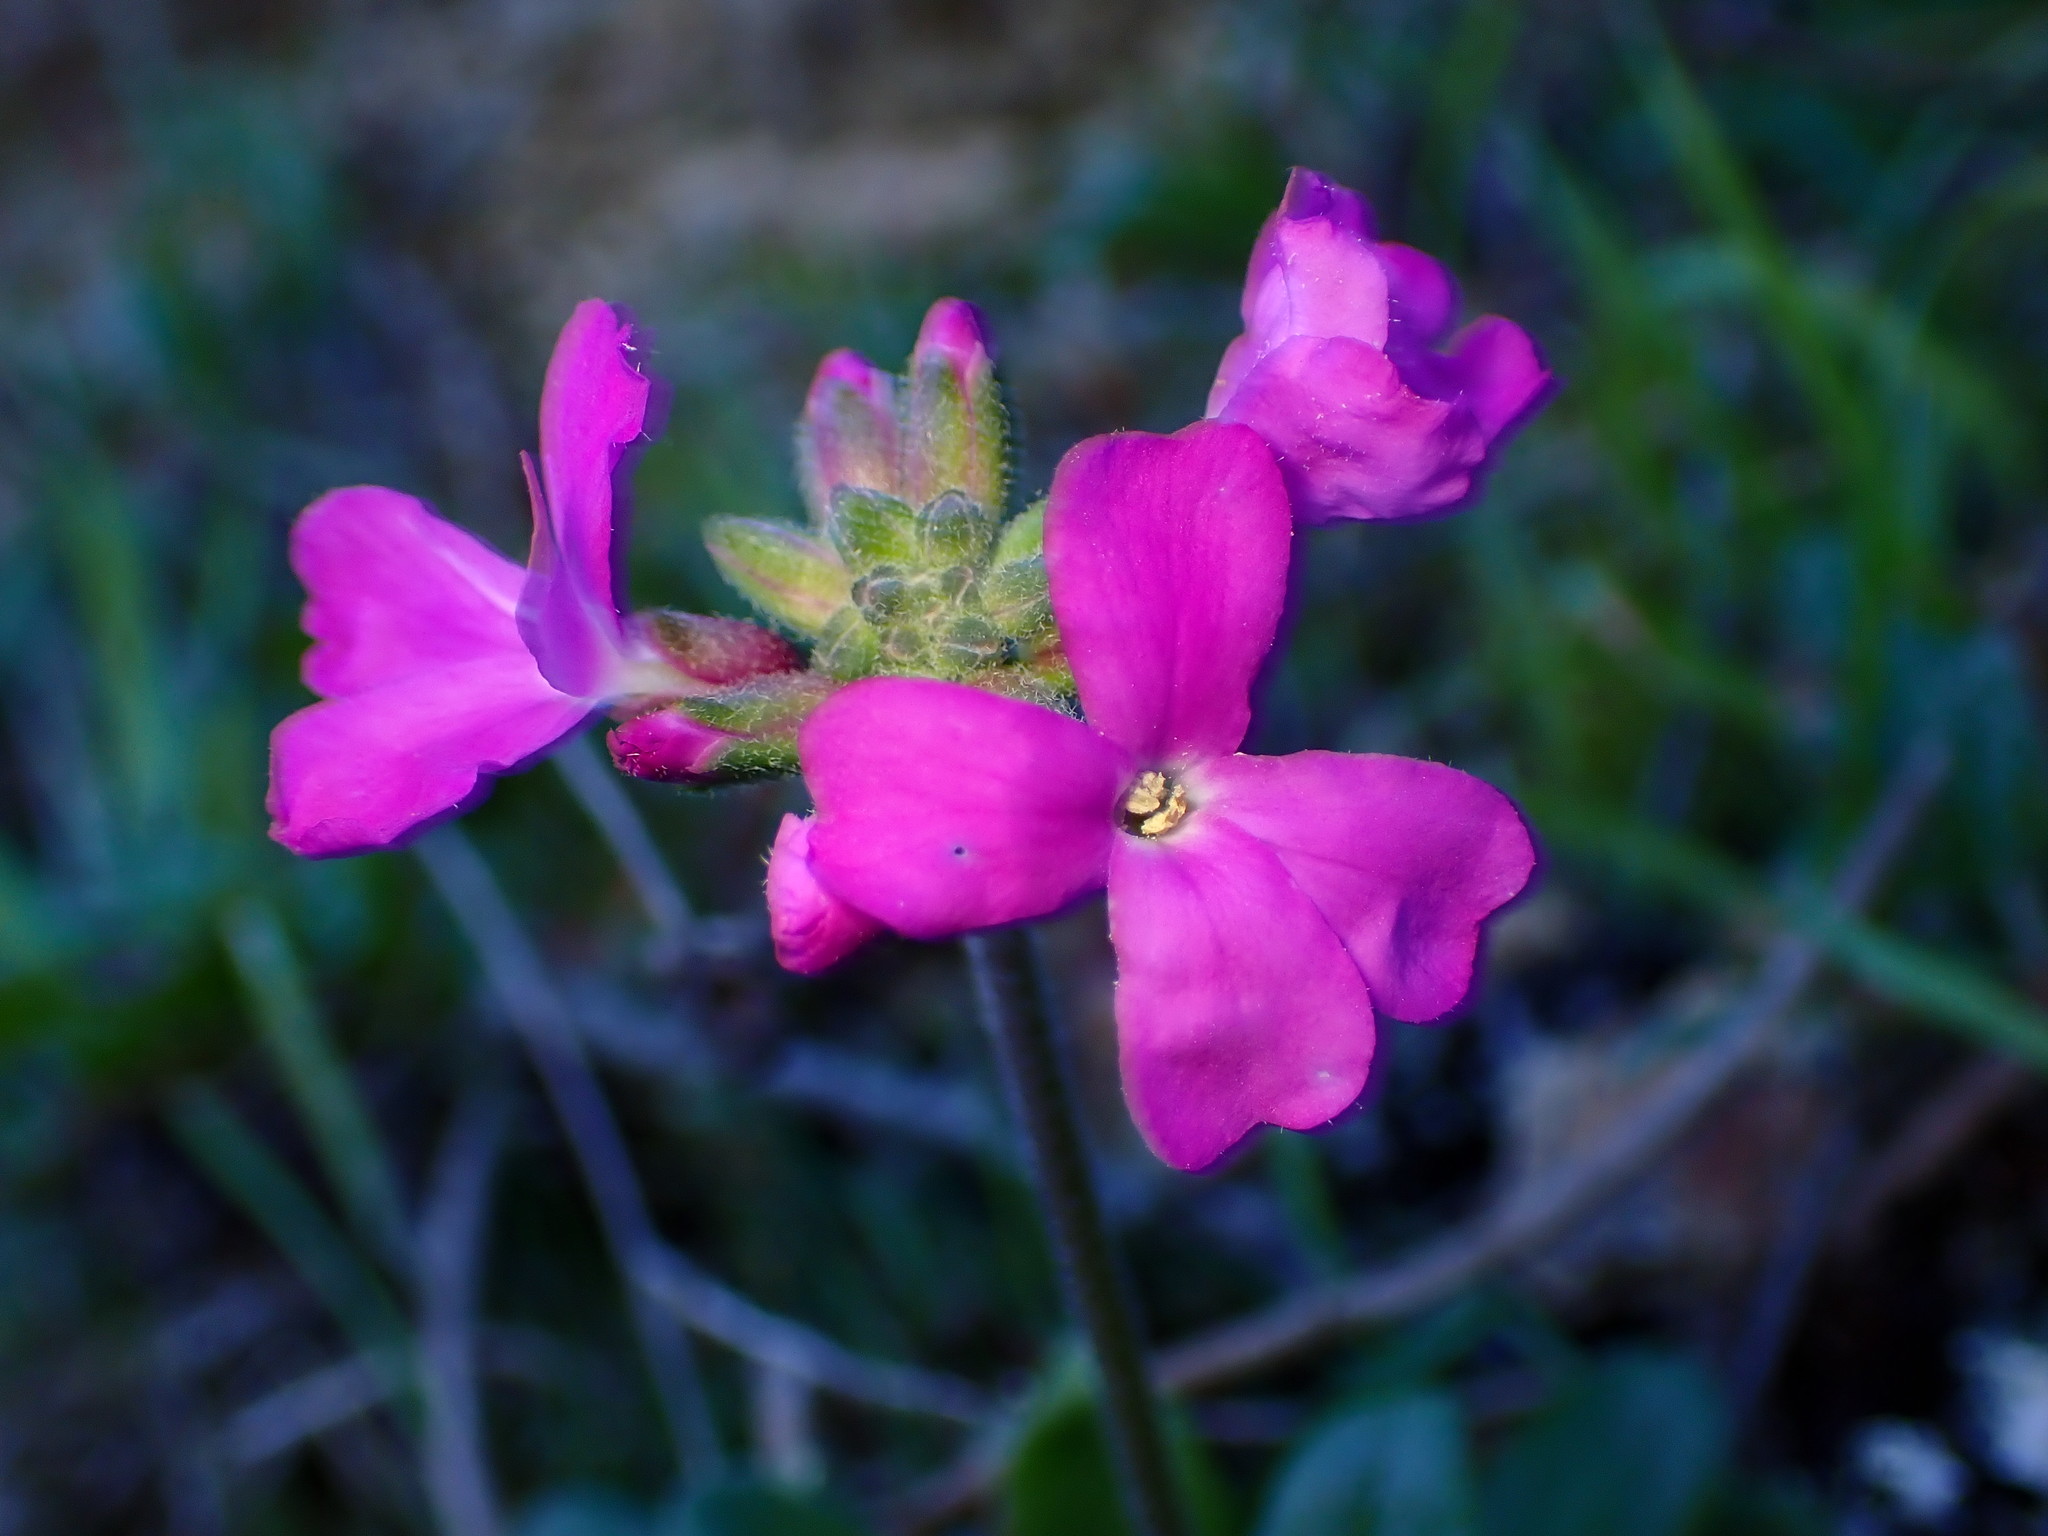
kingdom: Plantae
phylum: Tracheophyta
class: Magnoliopsida
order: Brassicales
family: Brassicaceae
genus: Arabis
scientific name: Arabis blepharophylla
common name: Rose rockcress
